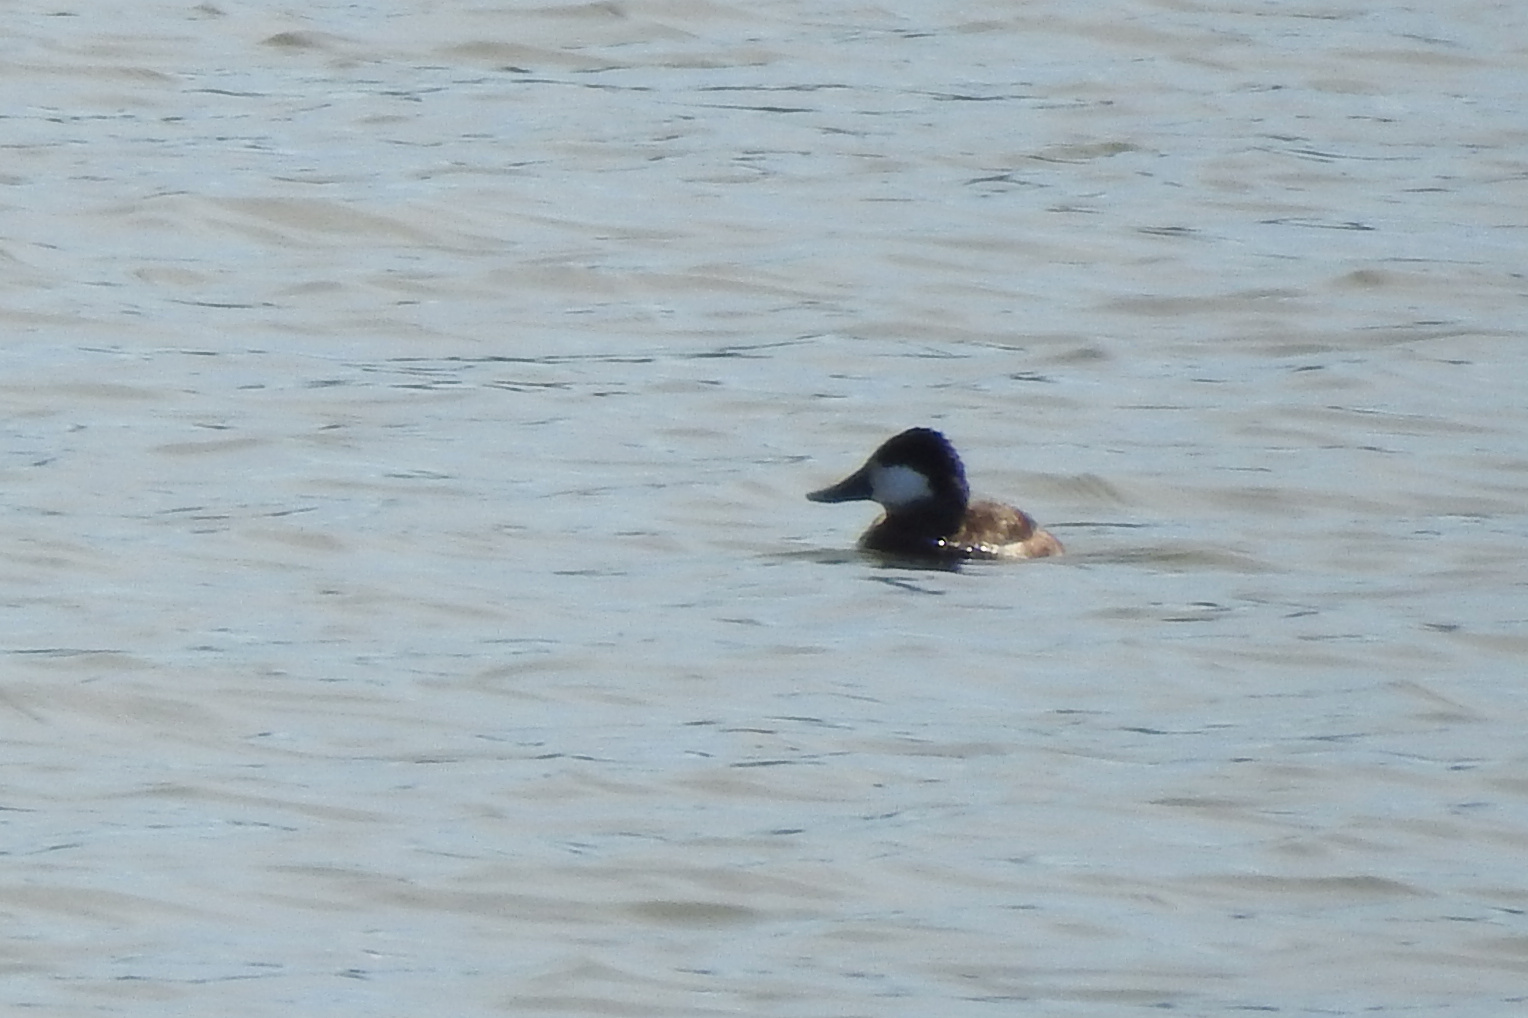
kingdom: Animalia
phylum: Chordata
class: Aves
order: Anseriformes
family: Anatidae
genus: Oxyura
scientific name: Oxyura jamaicensis
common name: Ruddy duck
